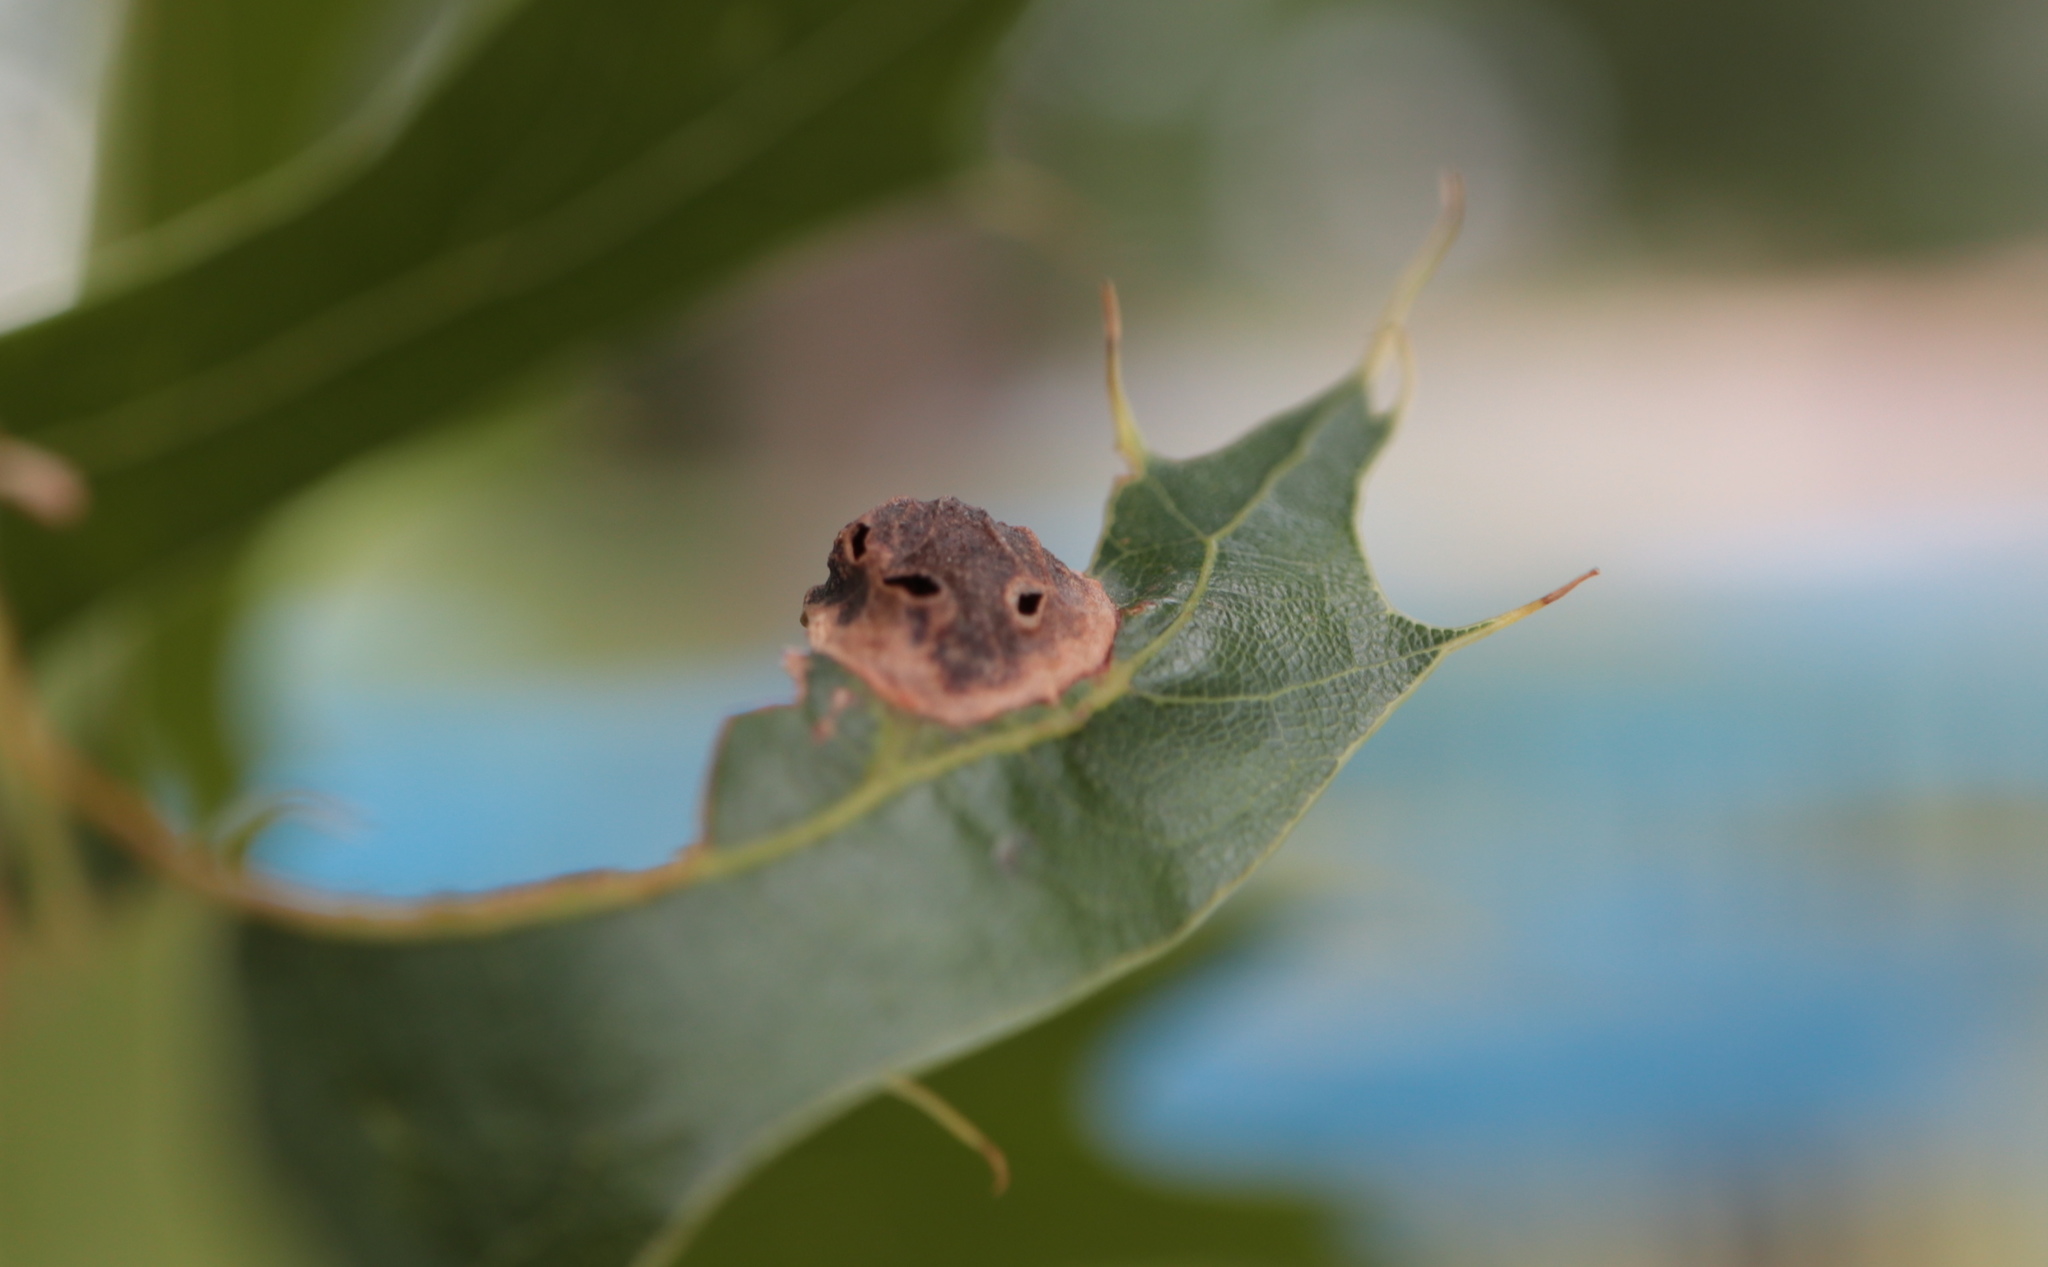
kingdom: Animalia
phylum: Arthropoda
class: Insecta
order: Hymenoptera
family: Cynipidae
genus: Dryocosmus
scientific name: Dryocosmus
